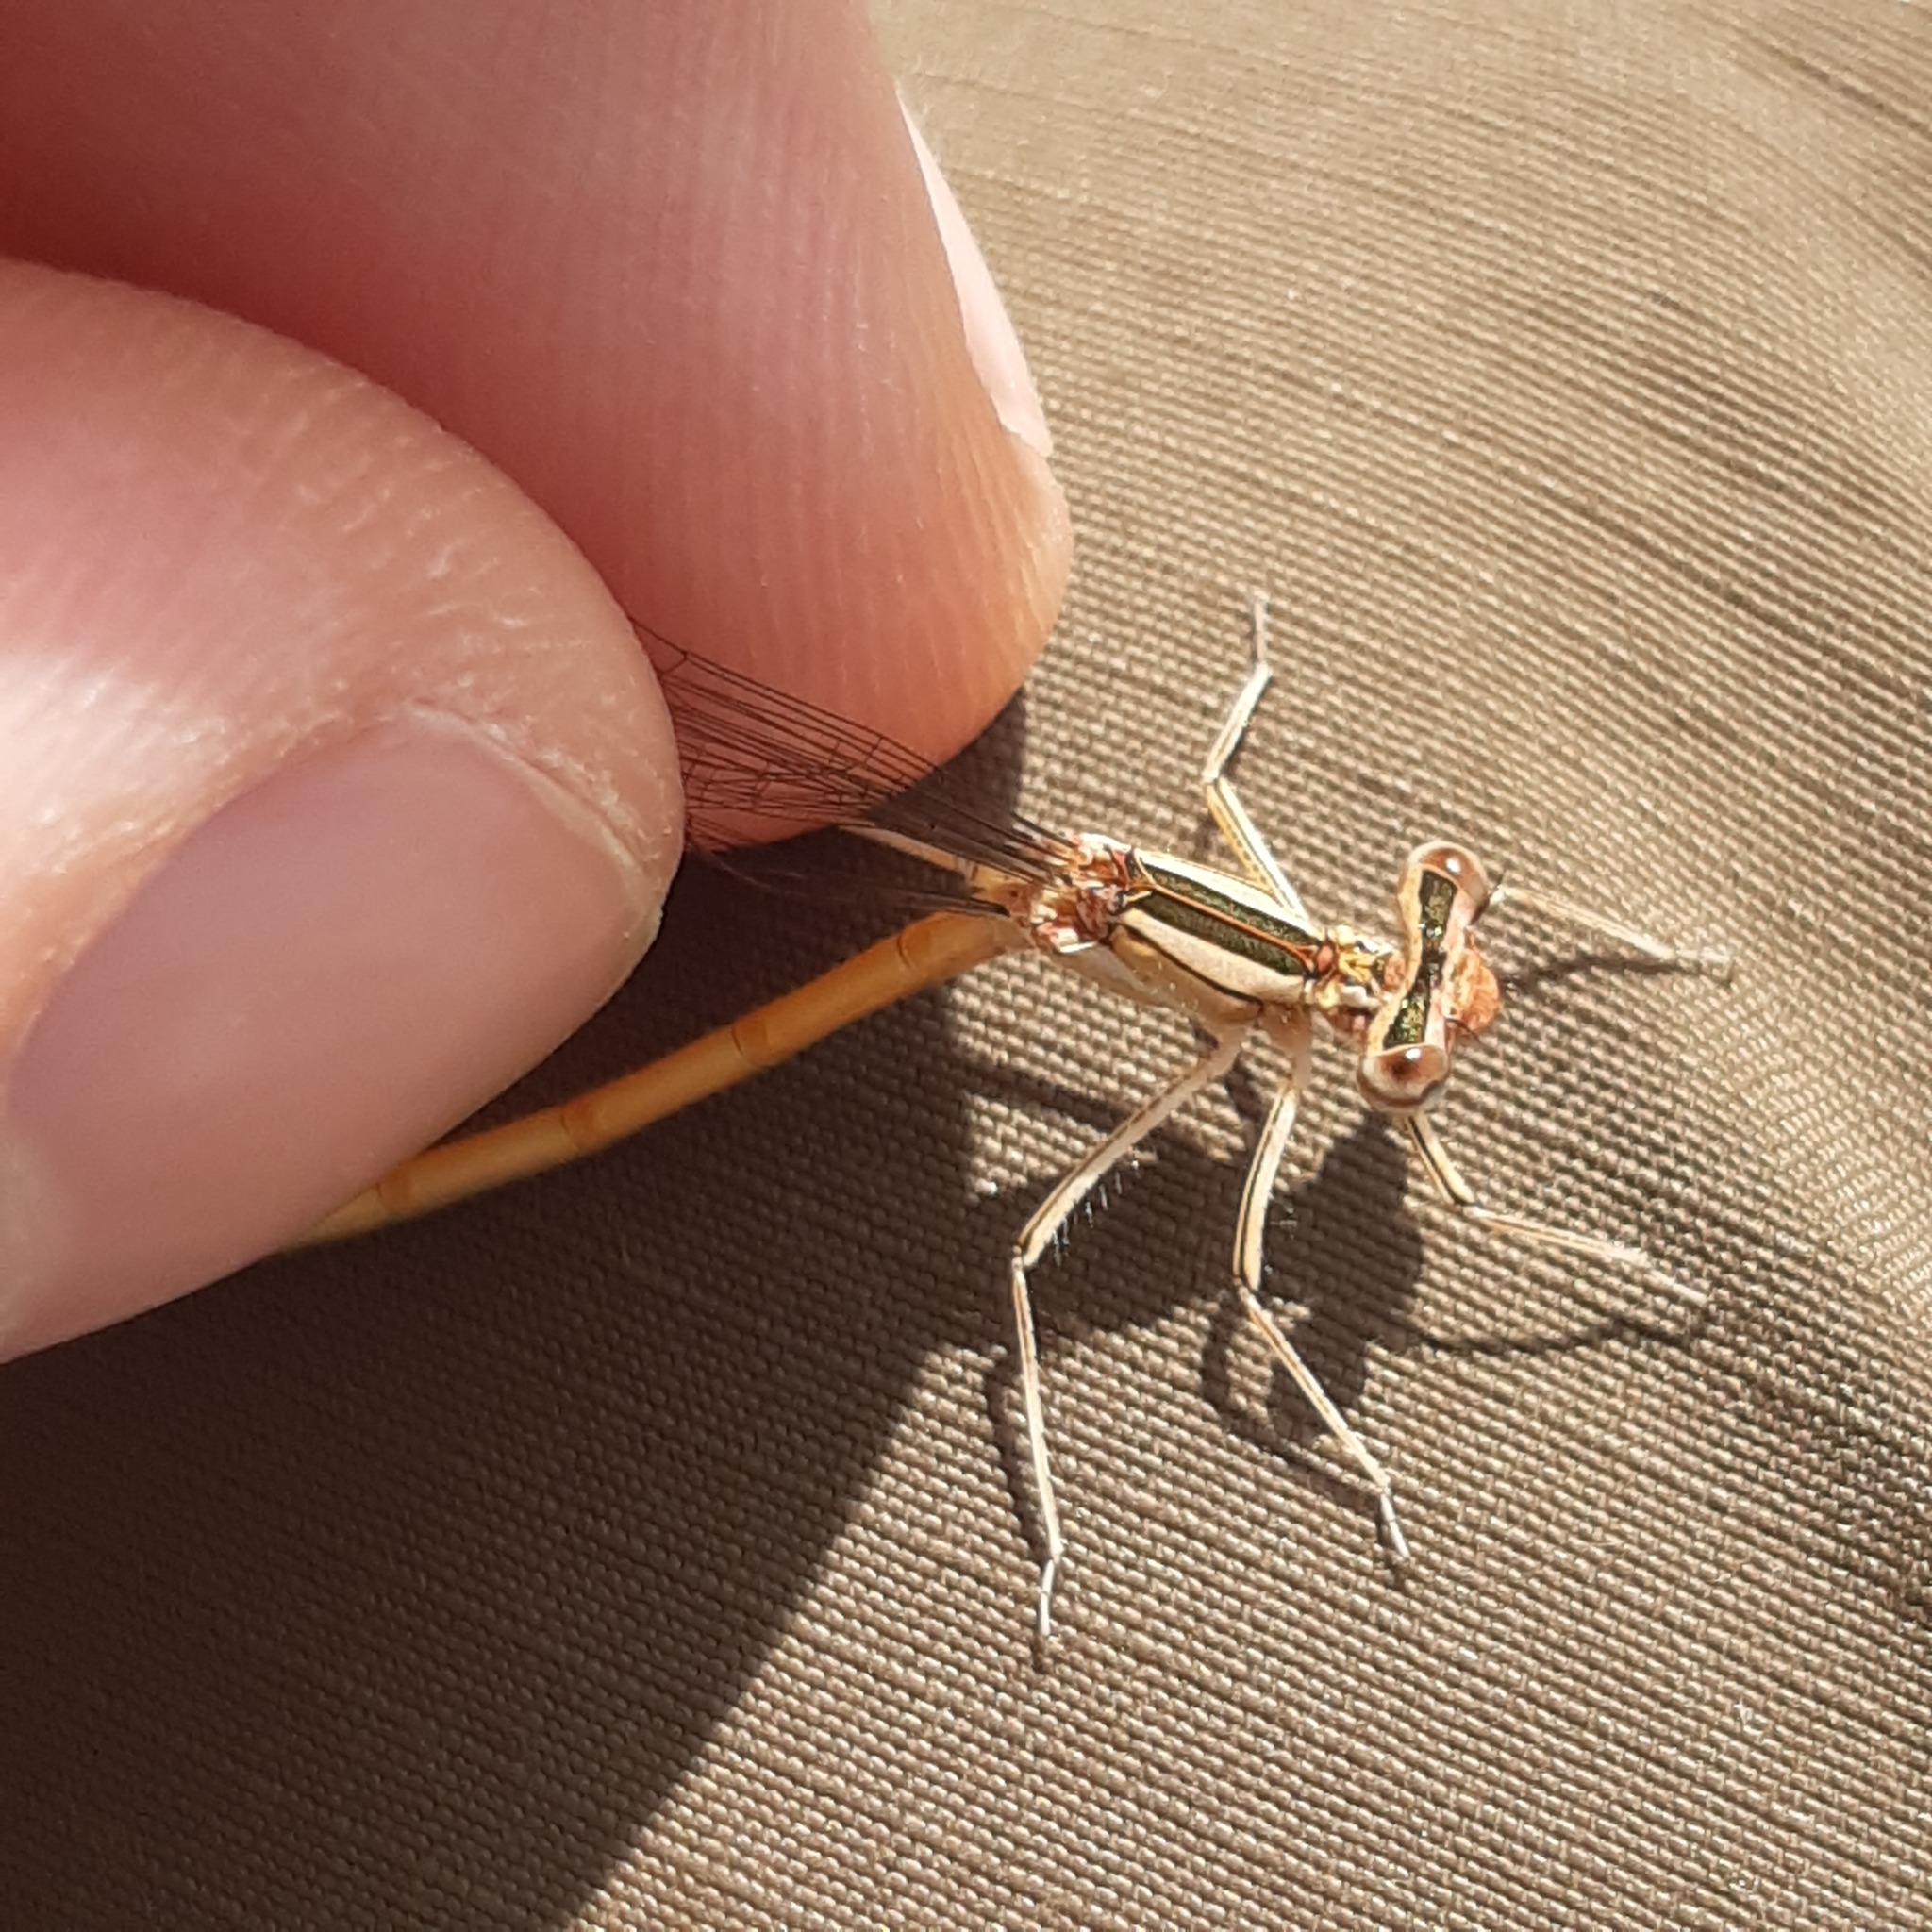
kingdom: Animalia
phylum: Arthropoda
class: Insecta
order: Odonata
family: Platycnemididae
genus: Platycnemis
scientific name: Platycnemis acutipennis
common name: Orange featherleg
